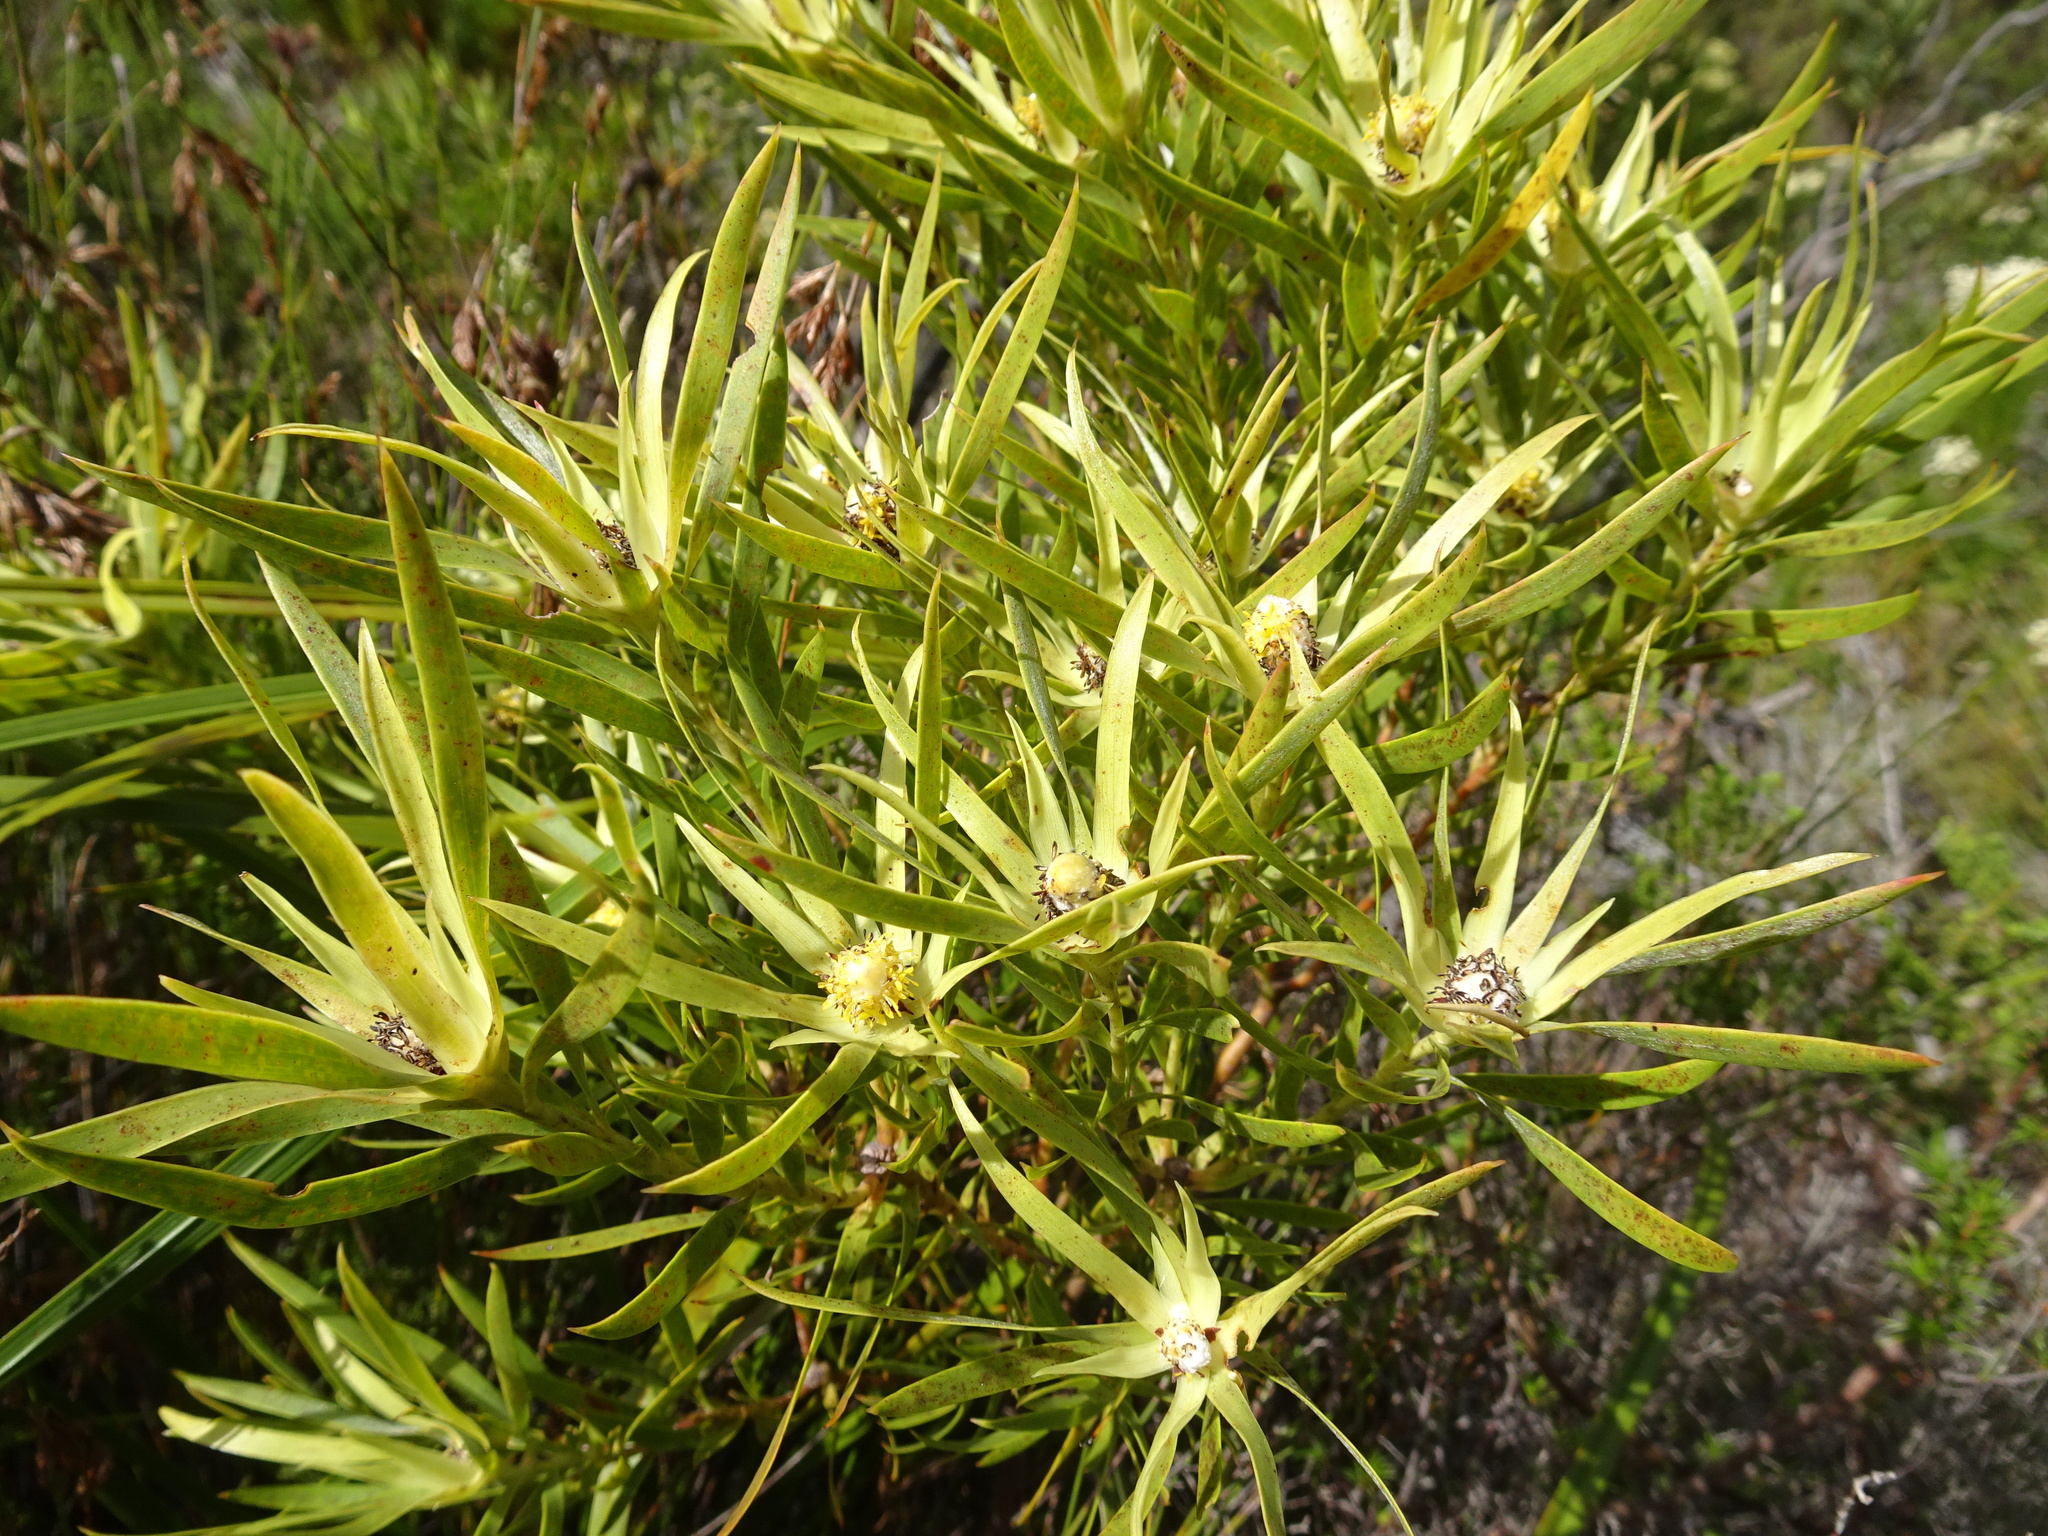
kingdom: Plantae
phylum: Tracheophyta
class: Magnoliopsida
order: Proteales
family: Proteaceae
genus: Leucadendron
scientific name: Leucadendron xanthoconus
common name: Sickle-leaf conebush
